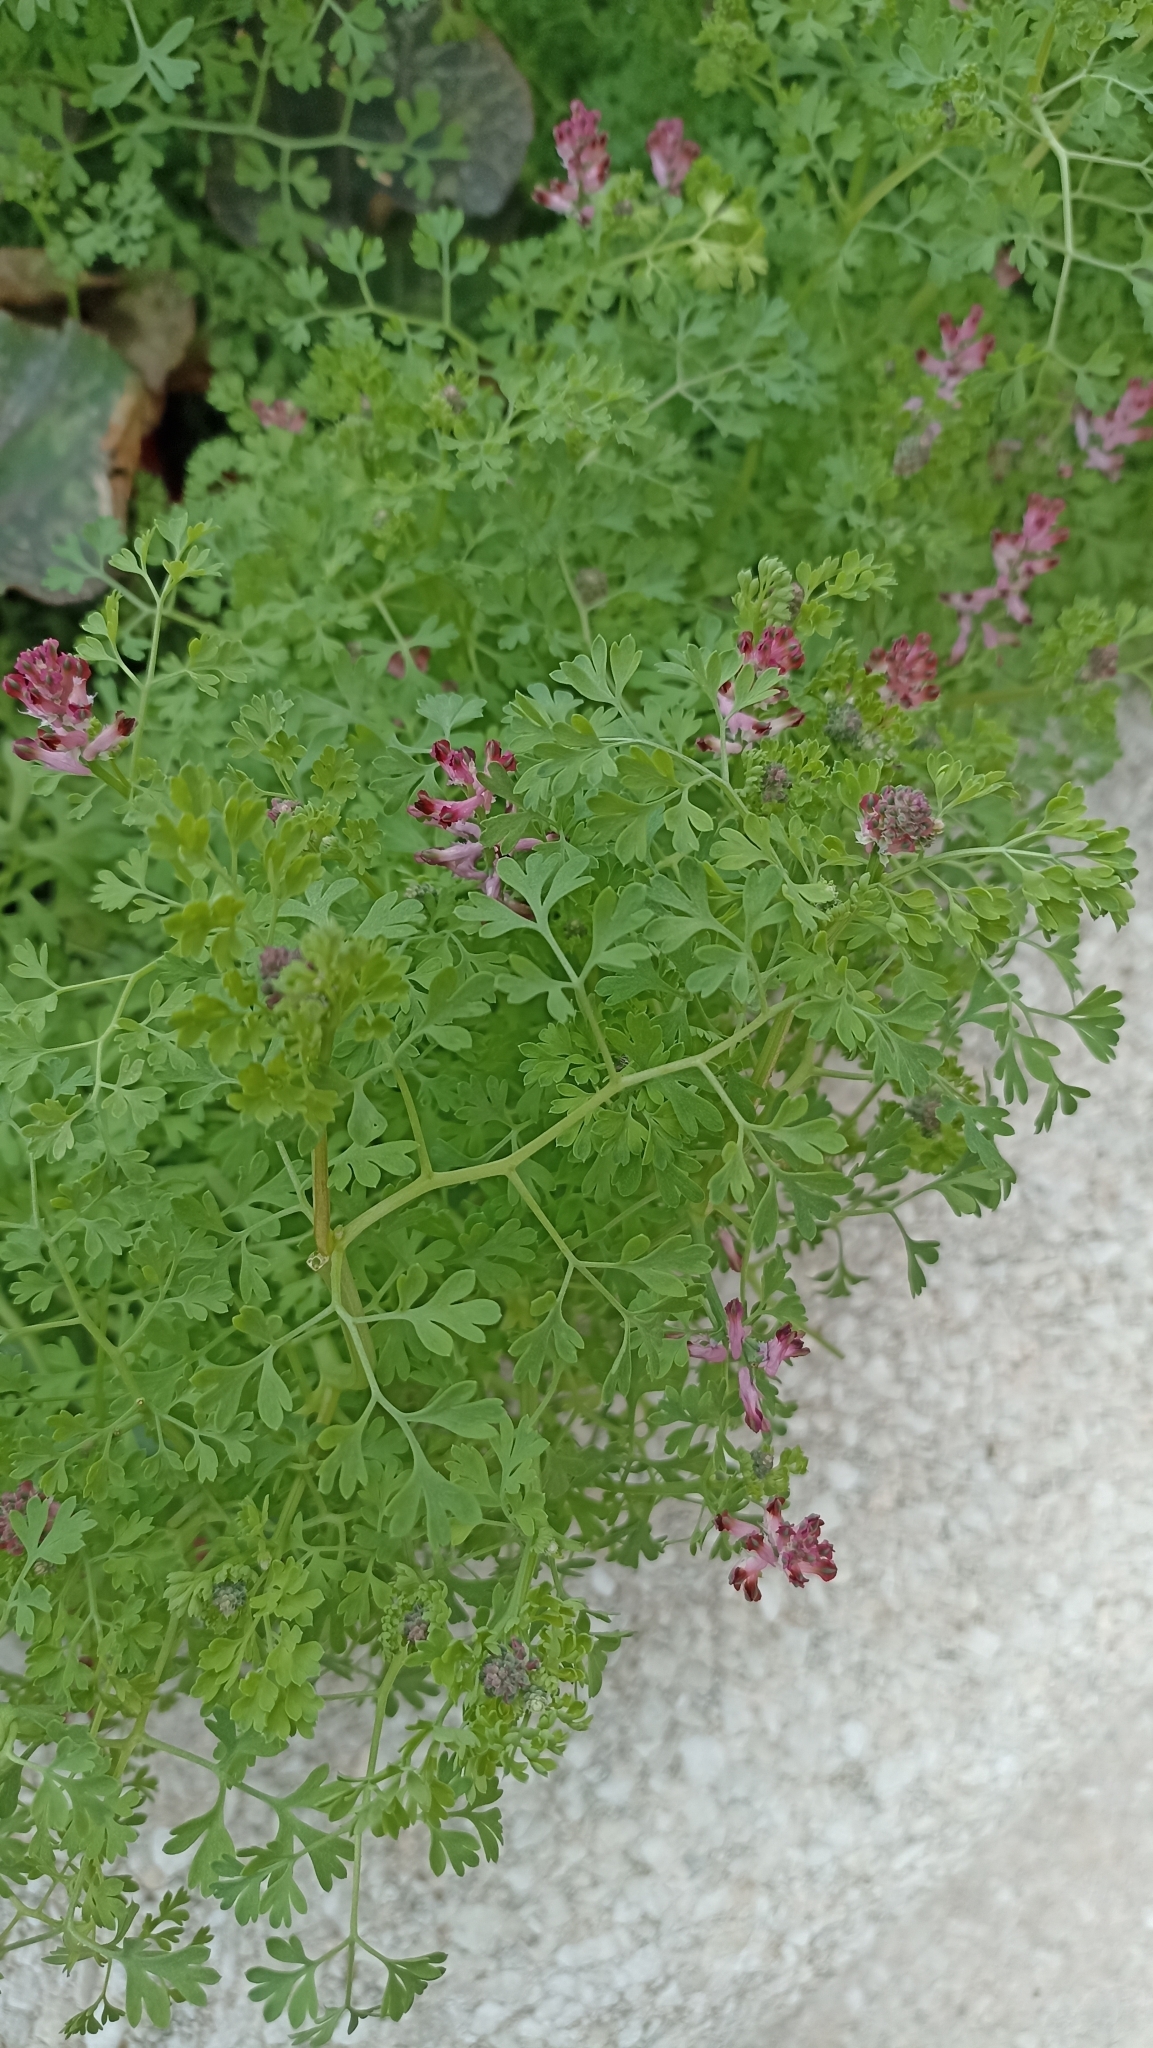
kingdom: Plantae
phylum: Tracheophyta
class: Magnoliopsida
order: Ranunculales
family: Papaveraceae
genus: Fumaria
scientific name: Fumaria officinalis
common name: Common fumitory
